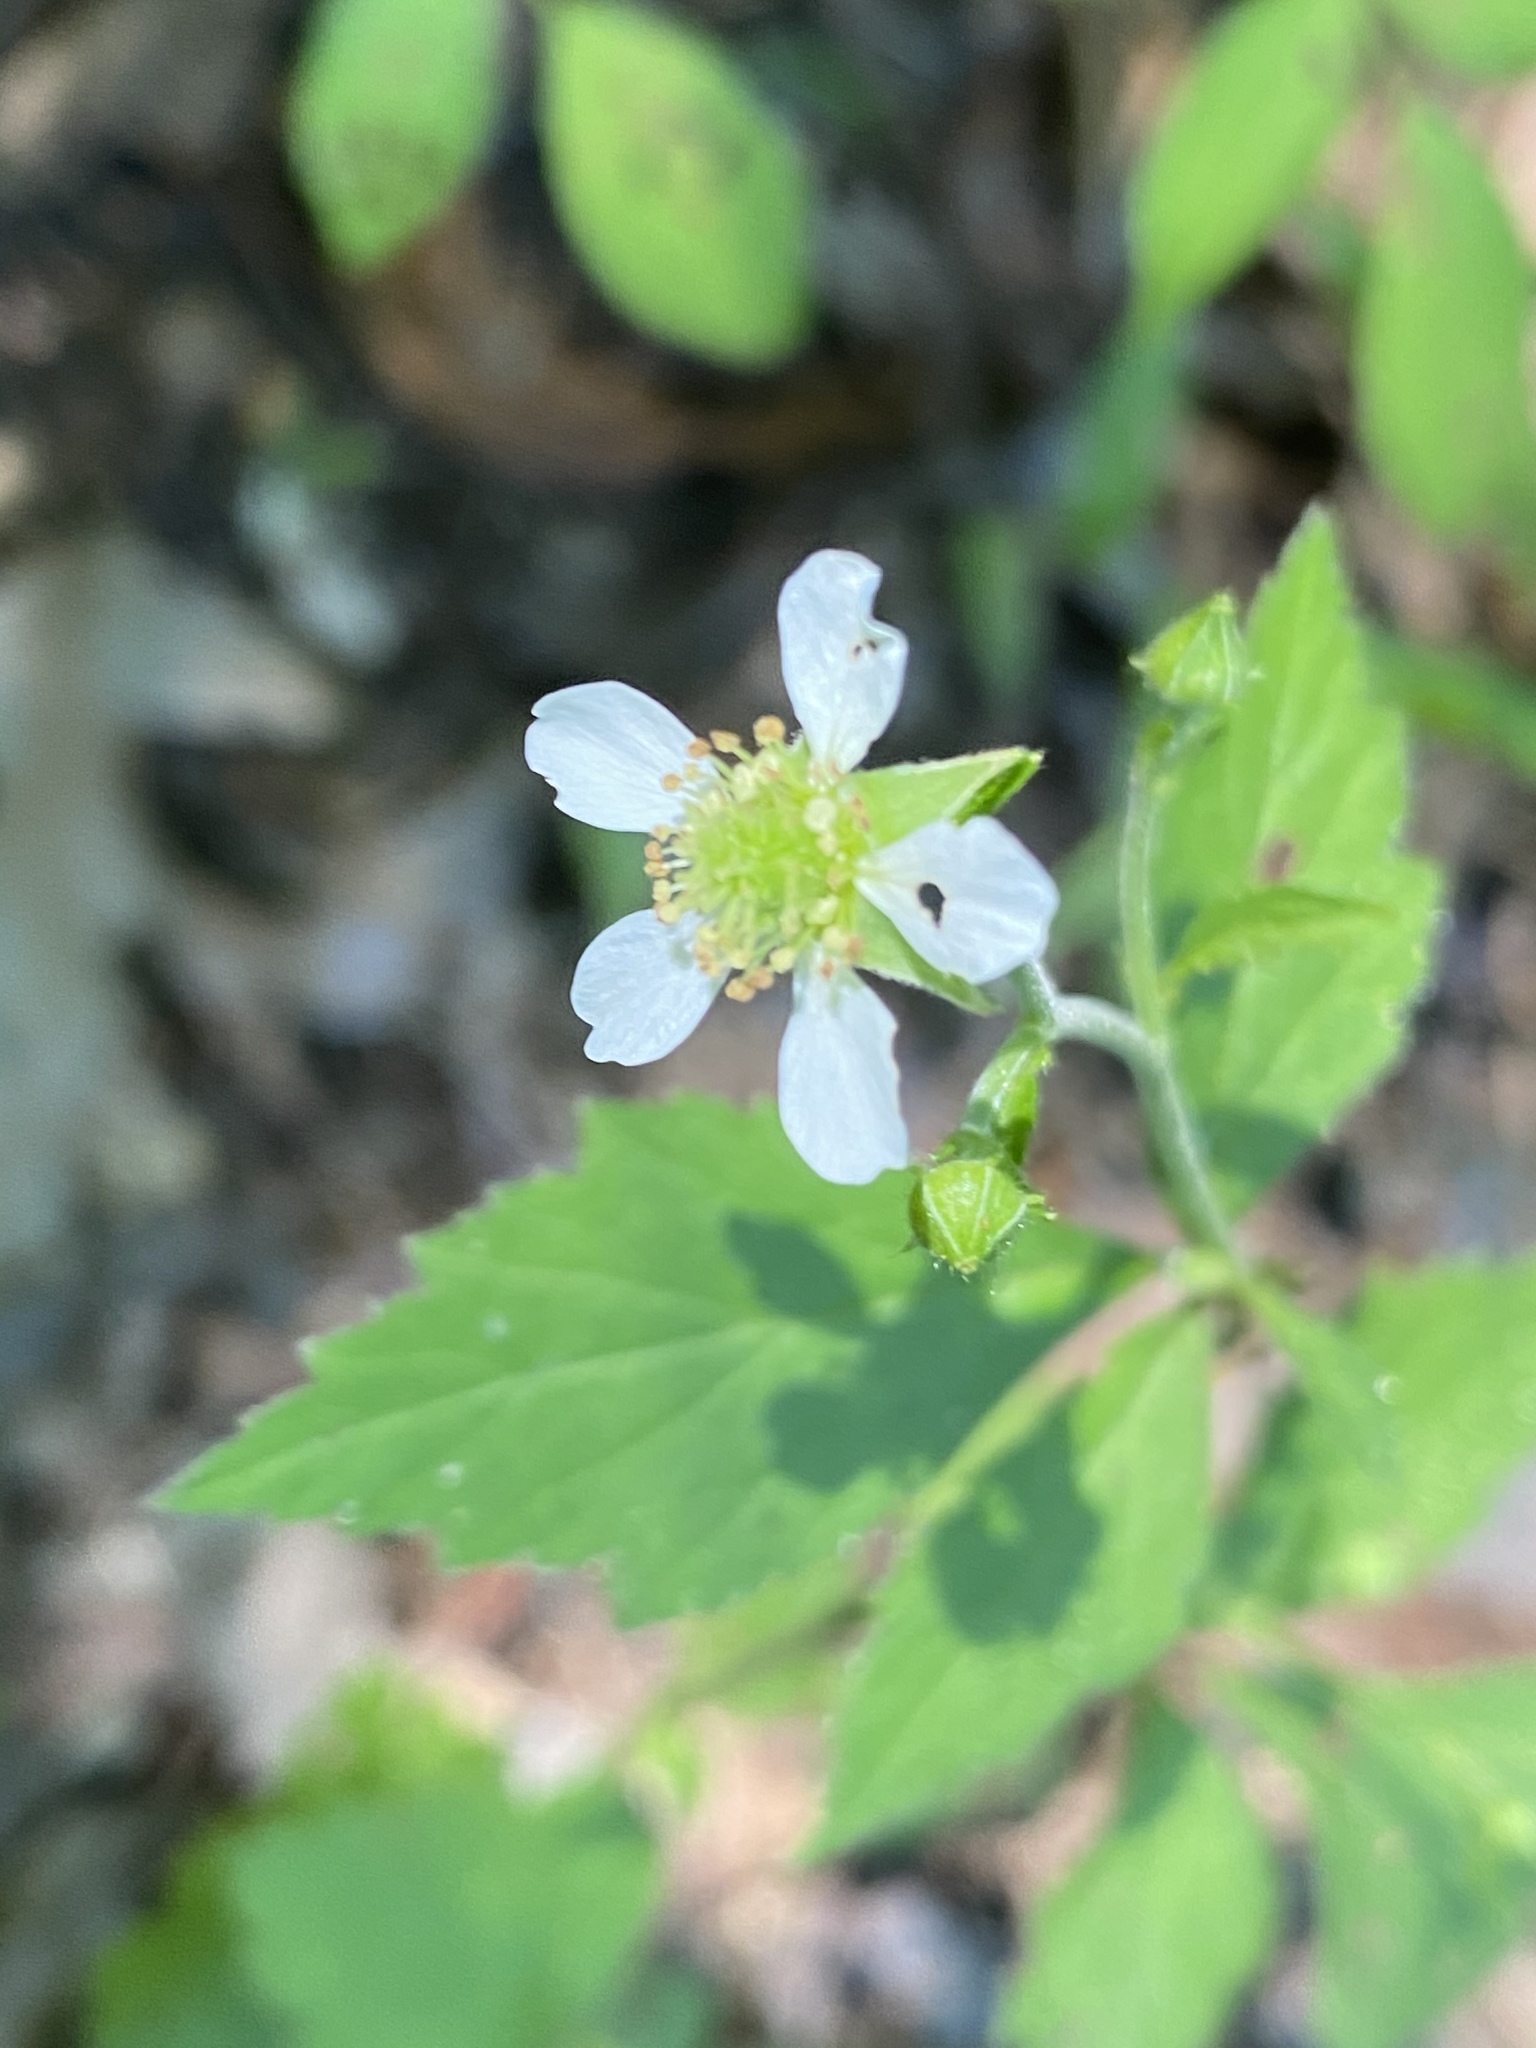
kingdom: Plantae
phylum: Tracheophyta
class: Magnoliopsida
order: Rosales
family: Rosaceae
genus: Geum
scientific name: Geum canadense
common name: White avens
